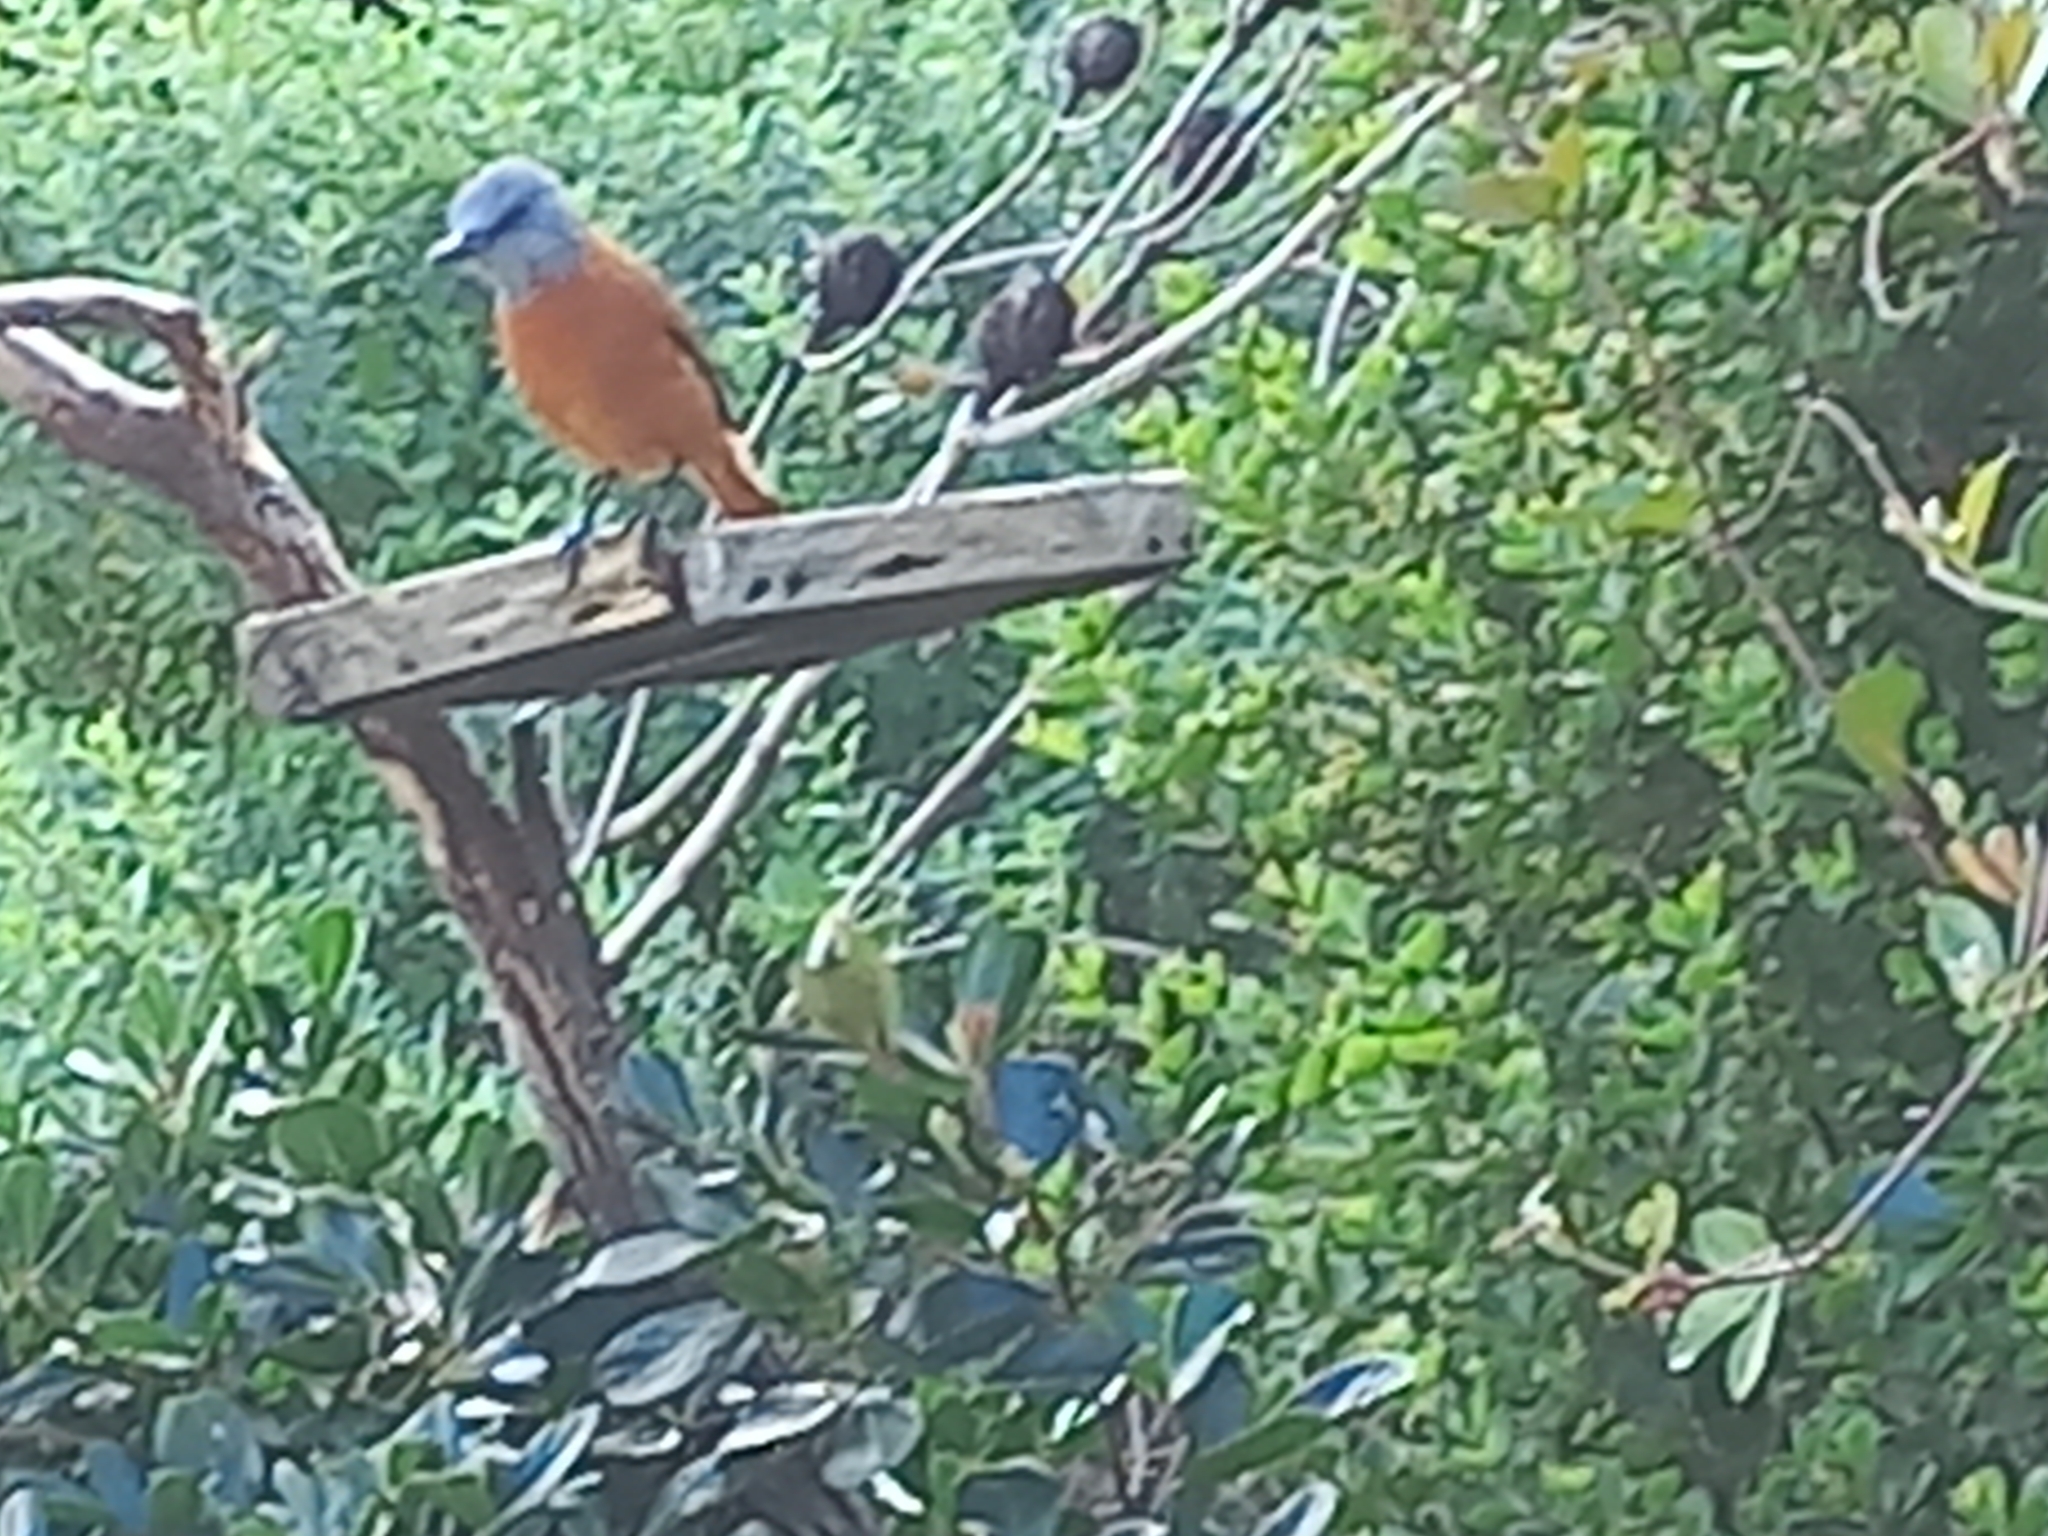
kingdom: Animalia
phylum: Chordata
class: Aves
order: Passeriformes
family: Muscicapidae
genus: Monticola
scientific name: Monticola rupestris
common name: Cape rock thrush
